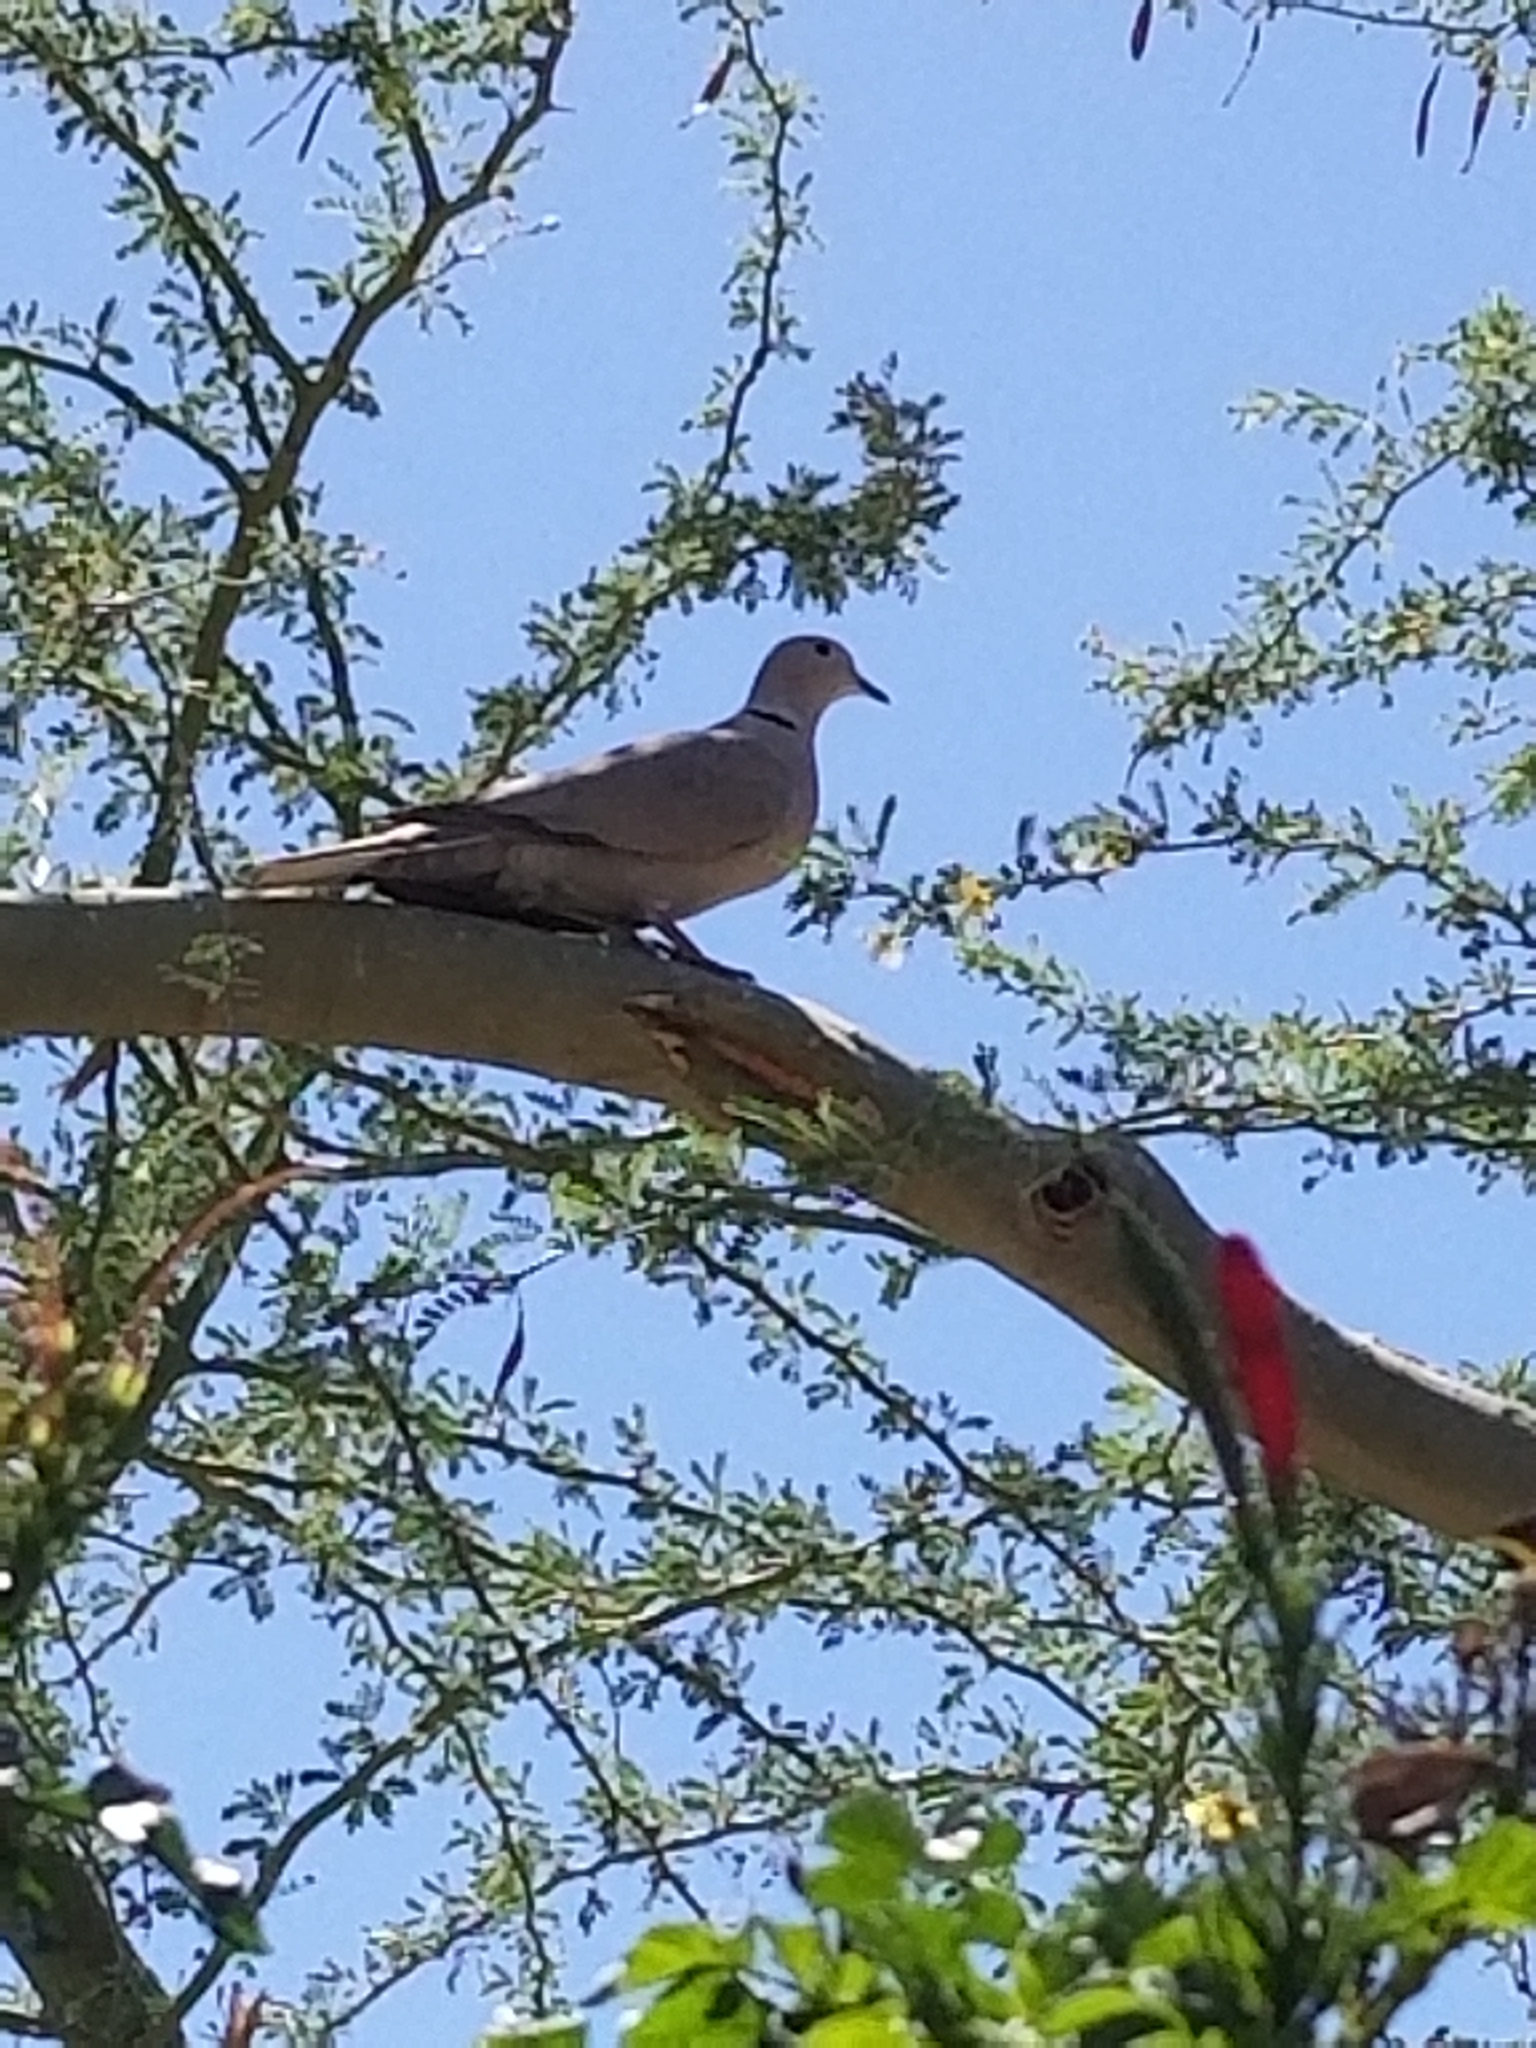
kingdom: Animalia
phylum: Chordata
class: Aves
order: Columbiformes
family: Columbidae
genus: Streptopelia
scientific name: Streptopelia decaocto
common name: Eurasian collared dove
